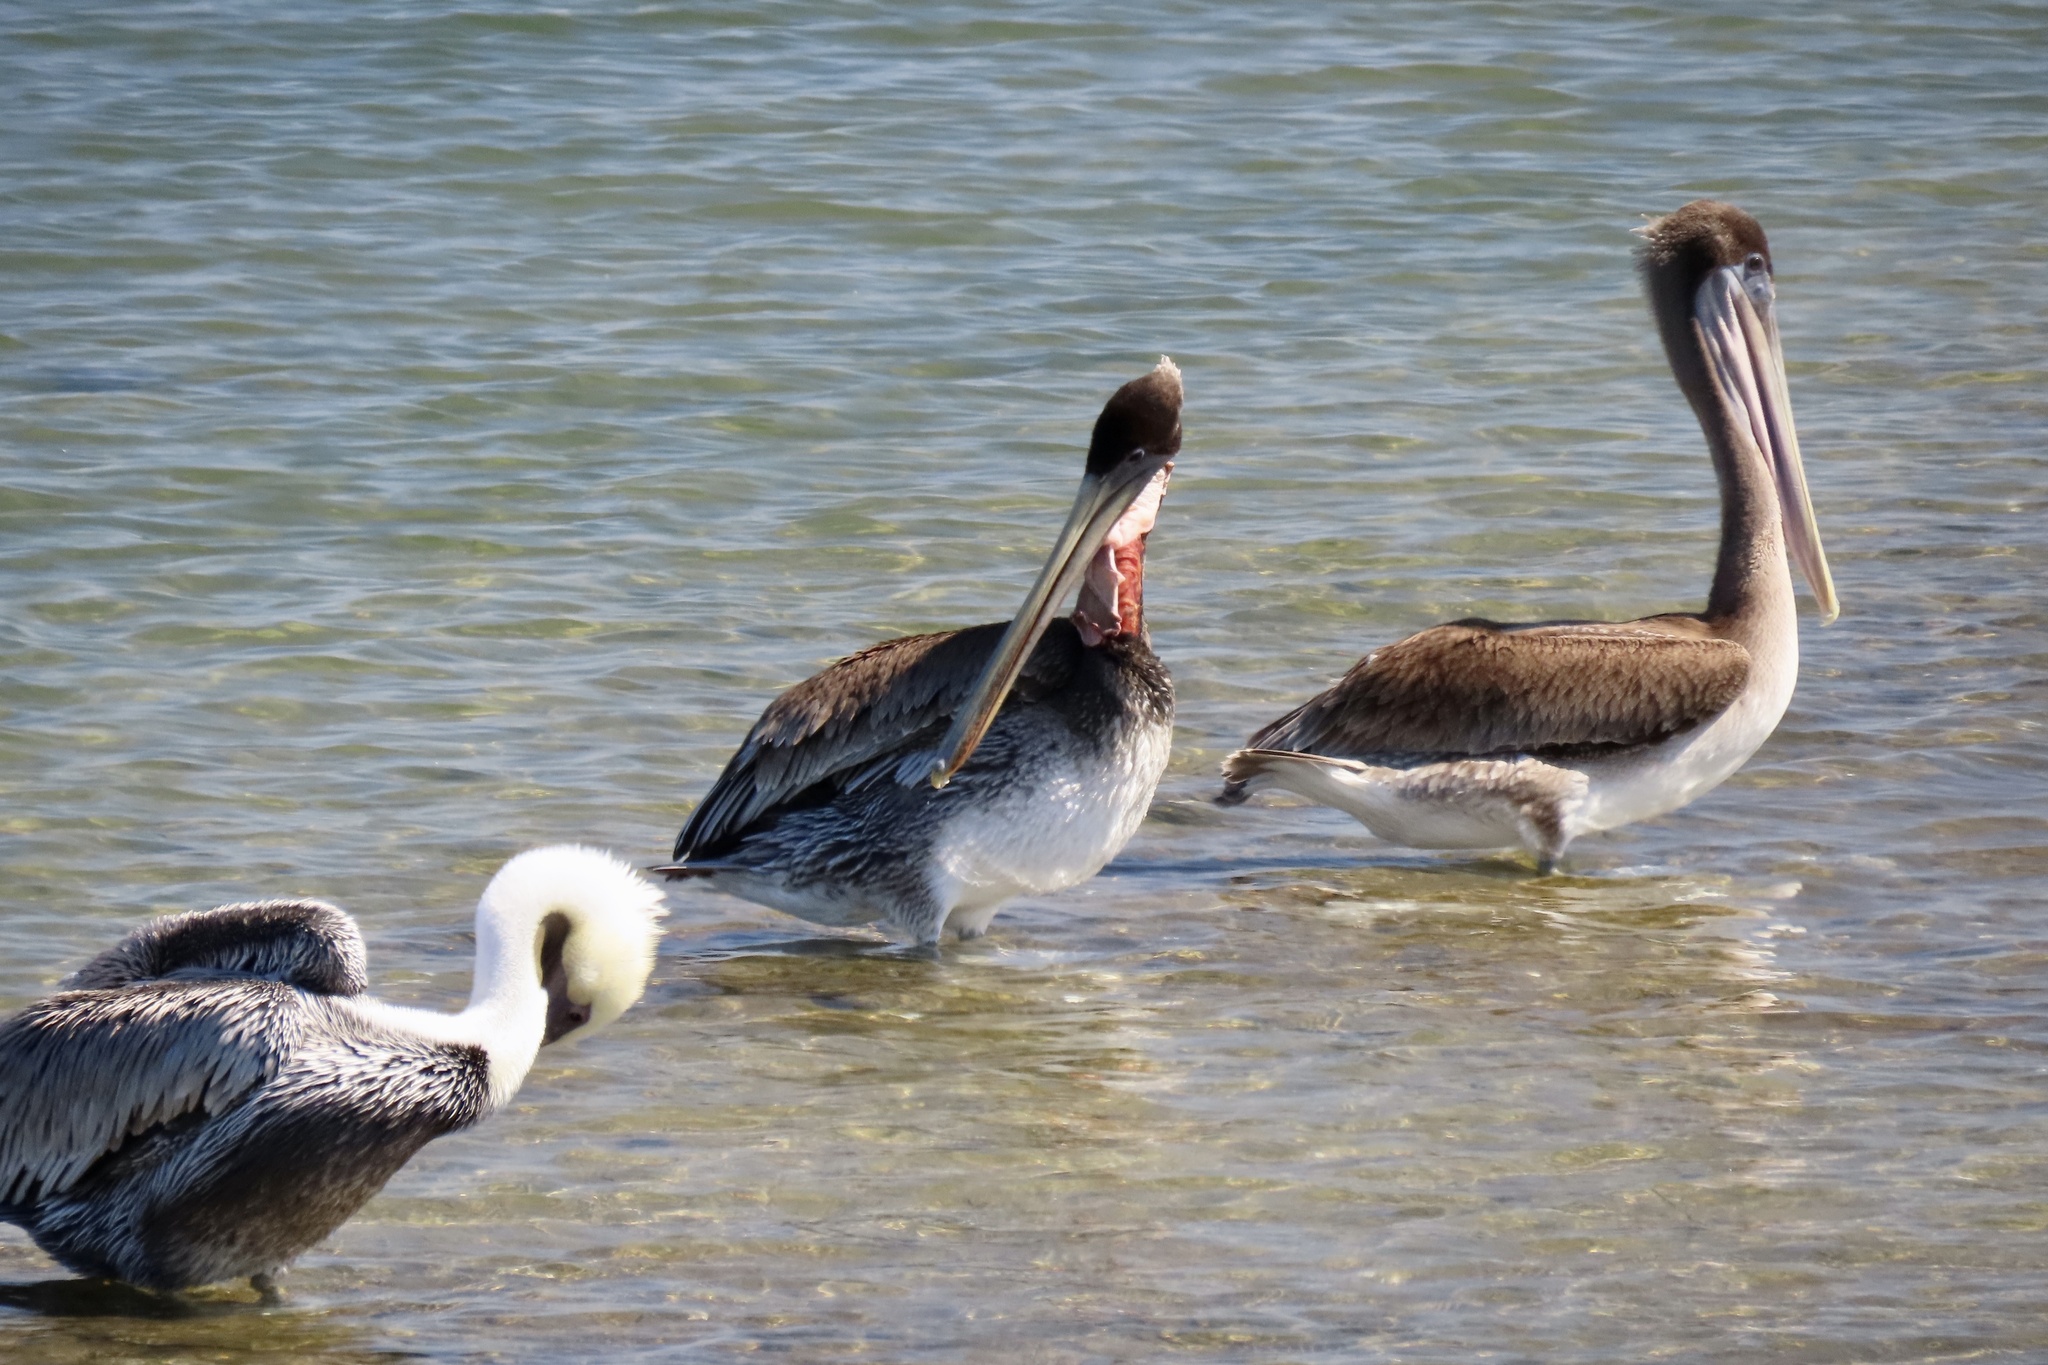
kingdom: Animalia
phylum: Chordata
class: Aves
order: Pelecaniformes
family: Pelecanidae
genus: Pelecanus
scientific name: Pelecanus occidentalis
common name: Brown pelican
